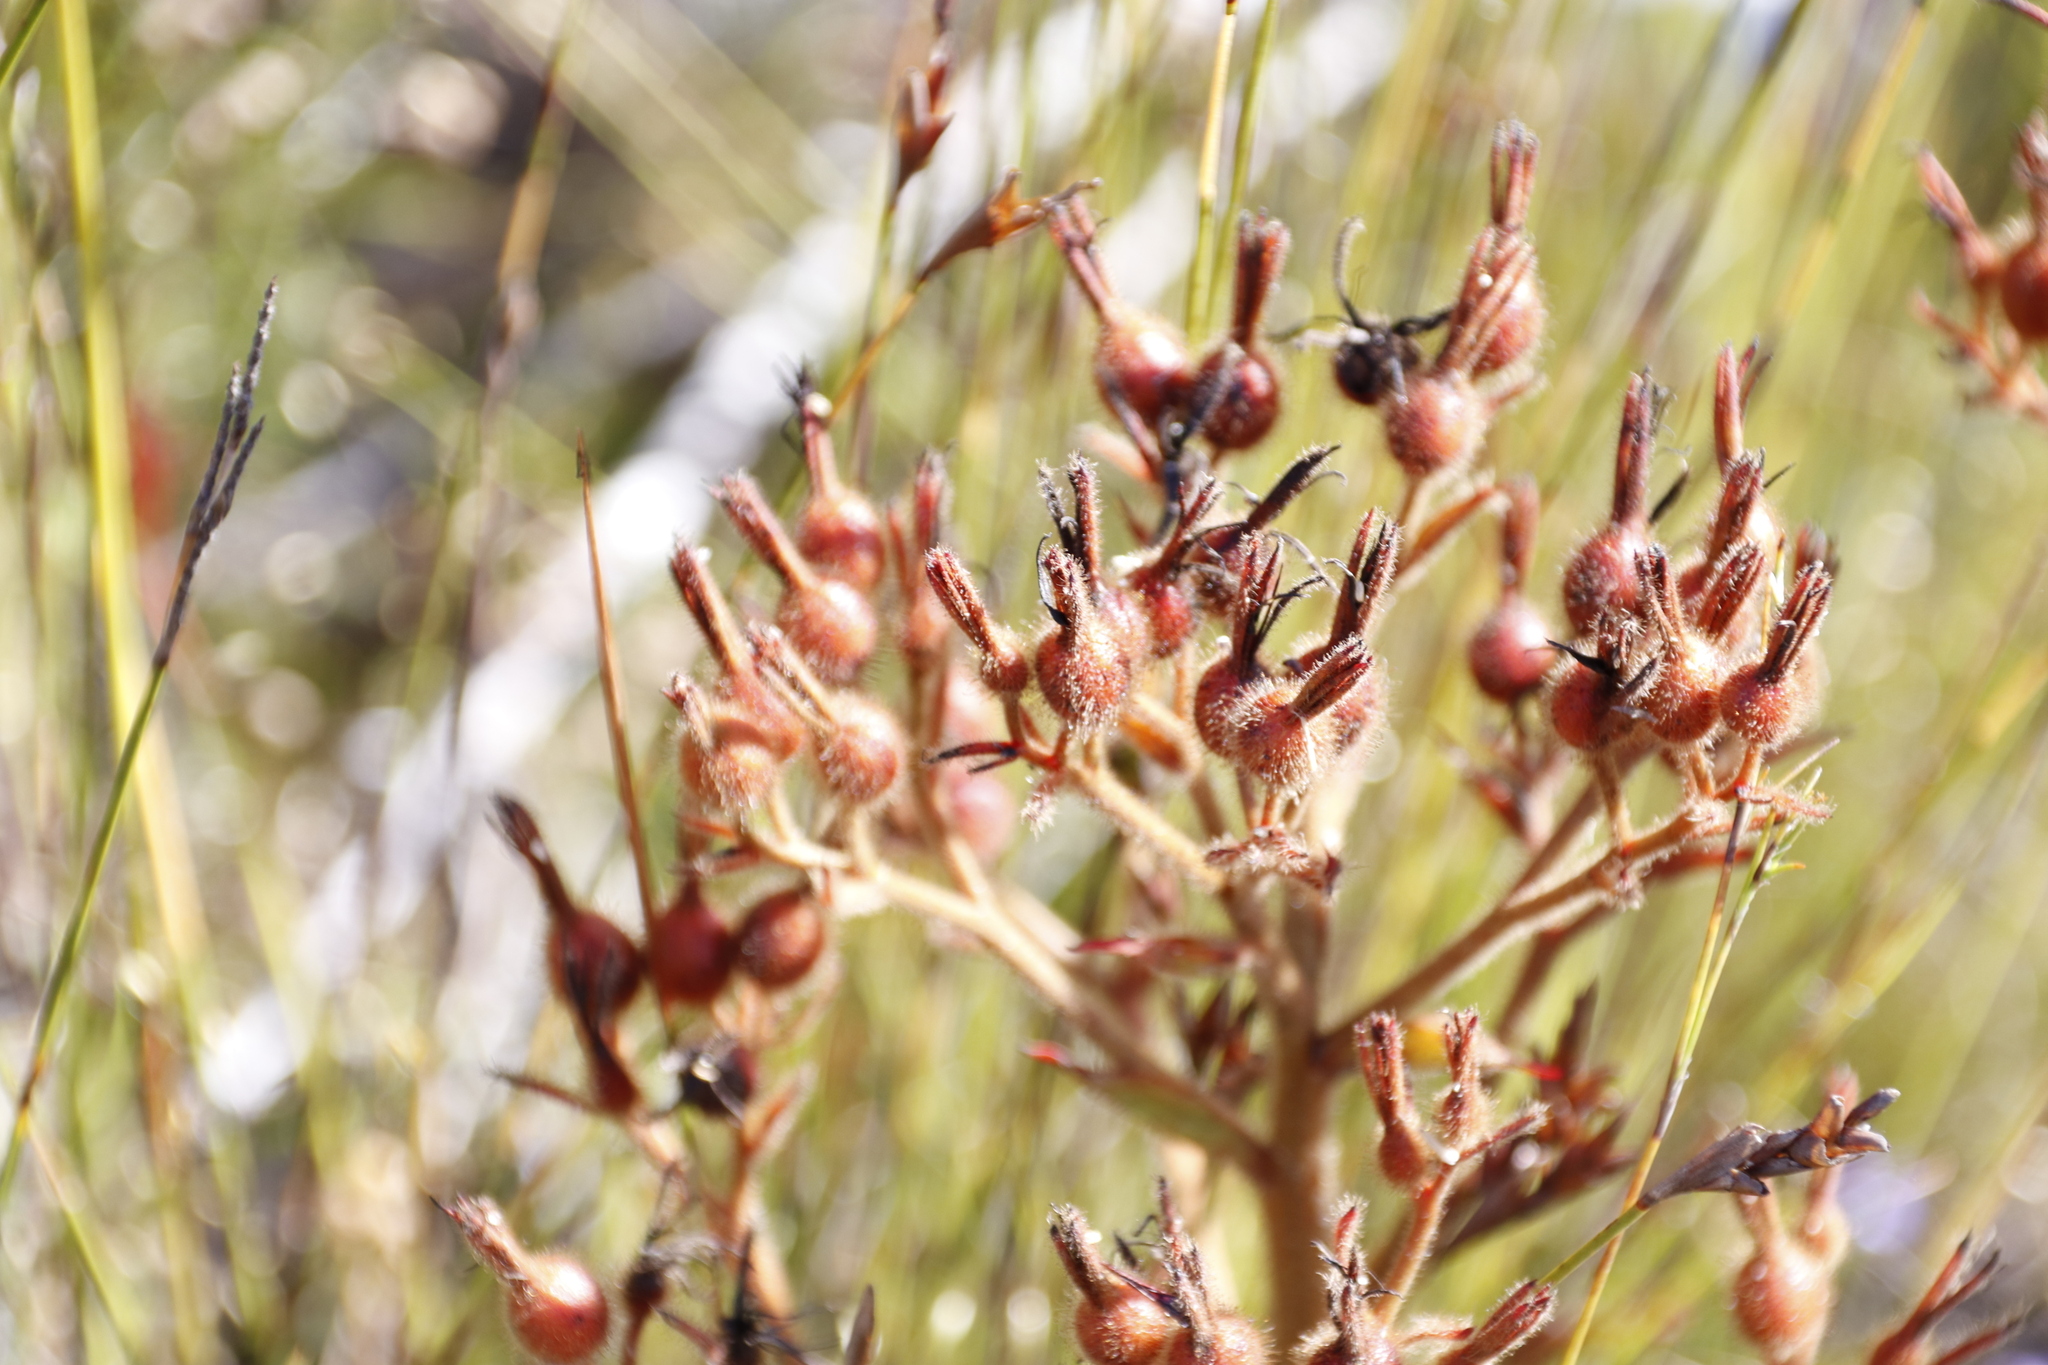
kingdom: Plantae
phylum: Tracheophyta
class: Liliopsida
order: Commelinales
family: Haemodoraceae
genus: Dilatris
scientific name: Dilatris viscosa
